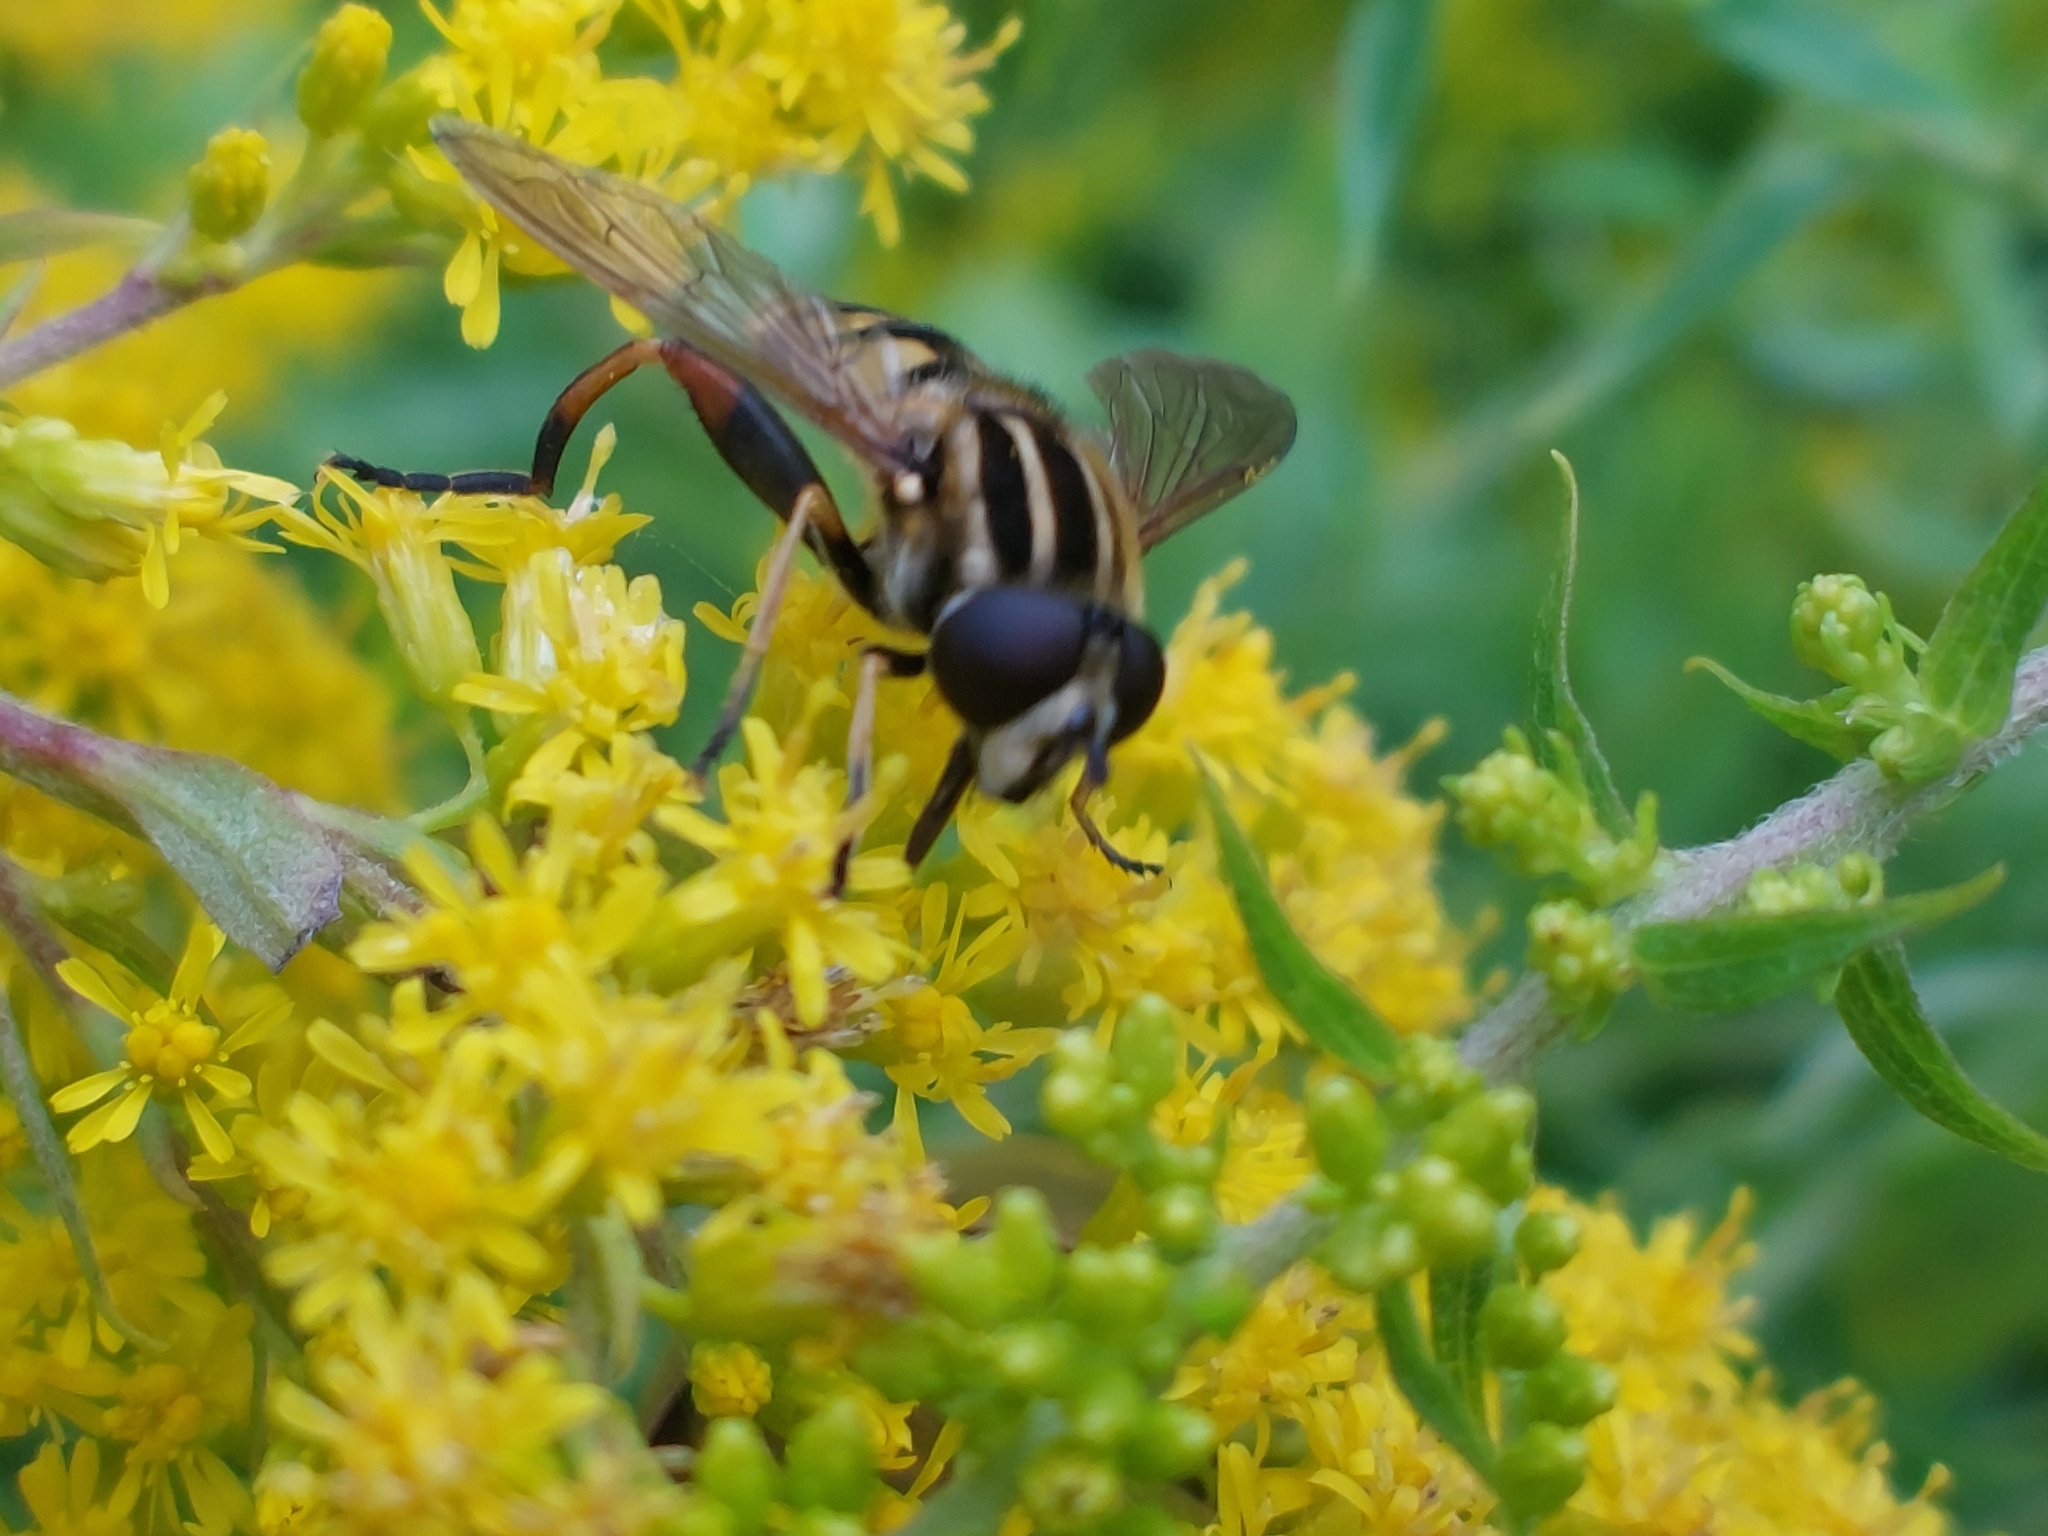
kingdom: Animalia
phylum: Arthropoda
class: Insecta
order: Diptera
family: Syrphidae
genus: Helophilus
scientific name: Helophilus pendulus
